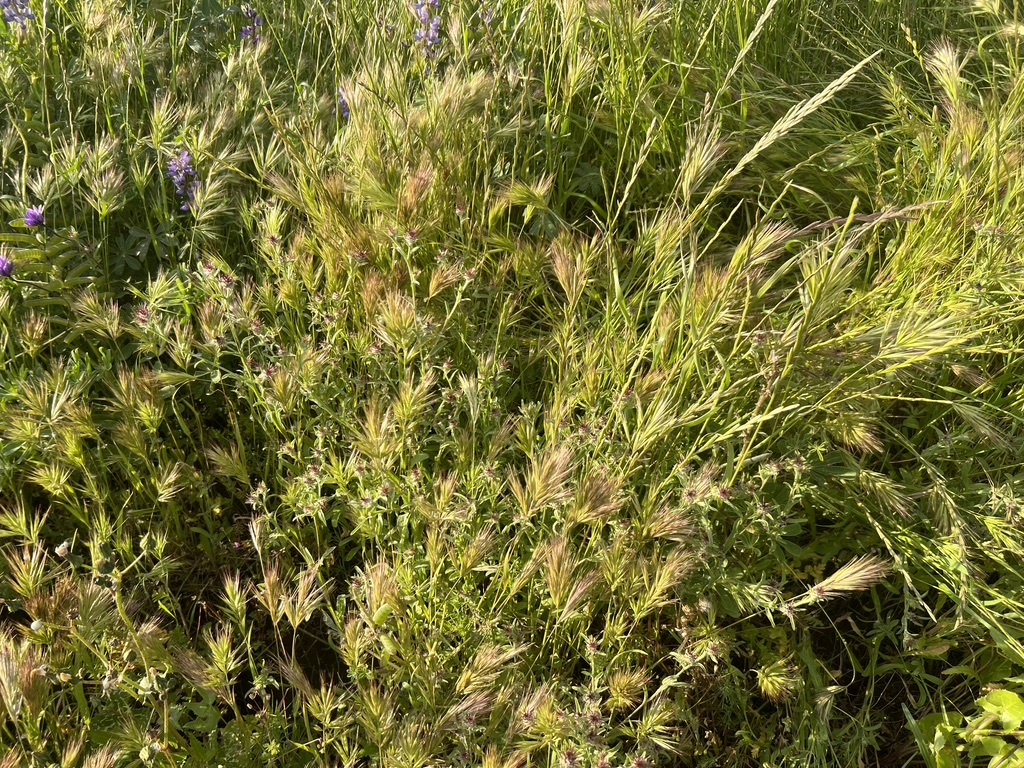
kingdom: Plantae
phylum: Tracheophyta
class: Magnoliopsida
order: Asterales
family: Asteraceae
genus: Centaurea
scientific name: Centaurea melitensis
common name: Maltese star-thistle
